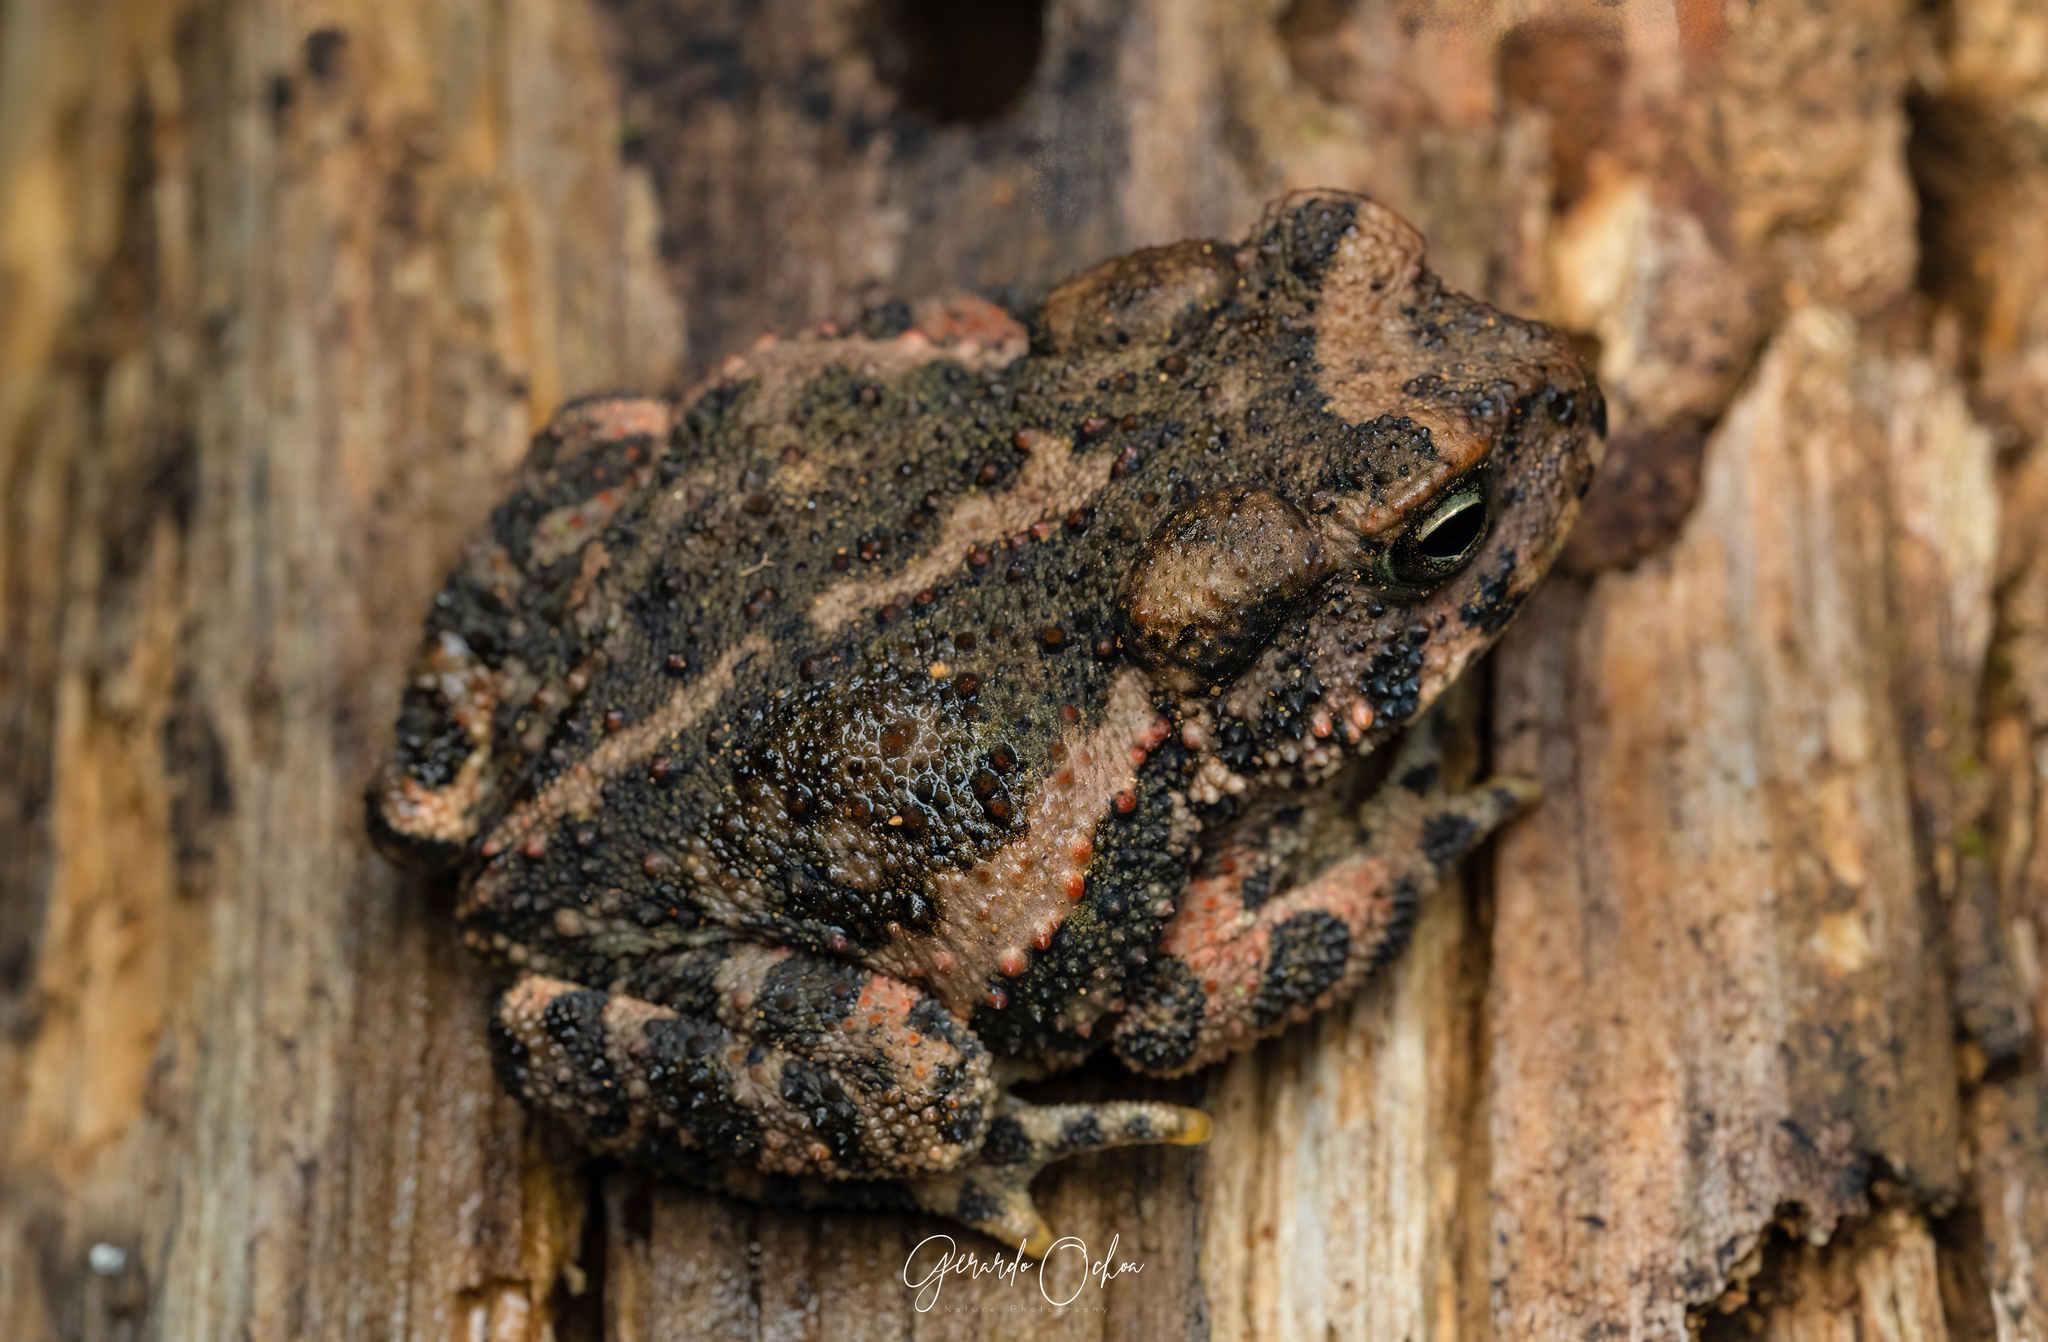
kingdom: Animalia
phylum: Chordata
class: Amphibia
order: Anura
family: Bufonidae
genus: Incilius
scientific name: Incilius occidentalis
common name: Pine toad
